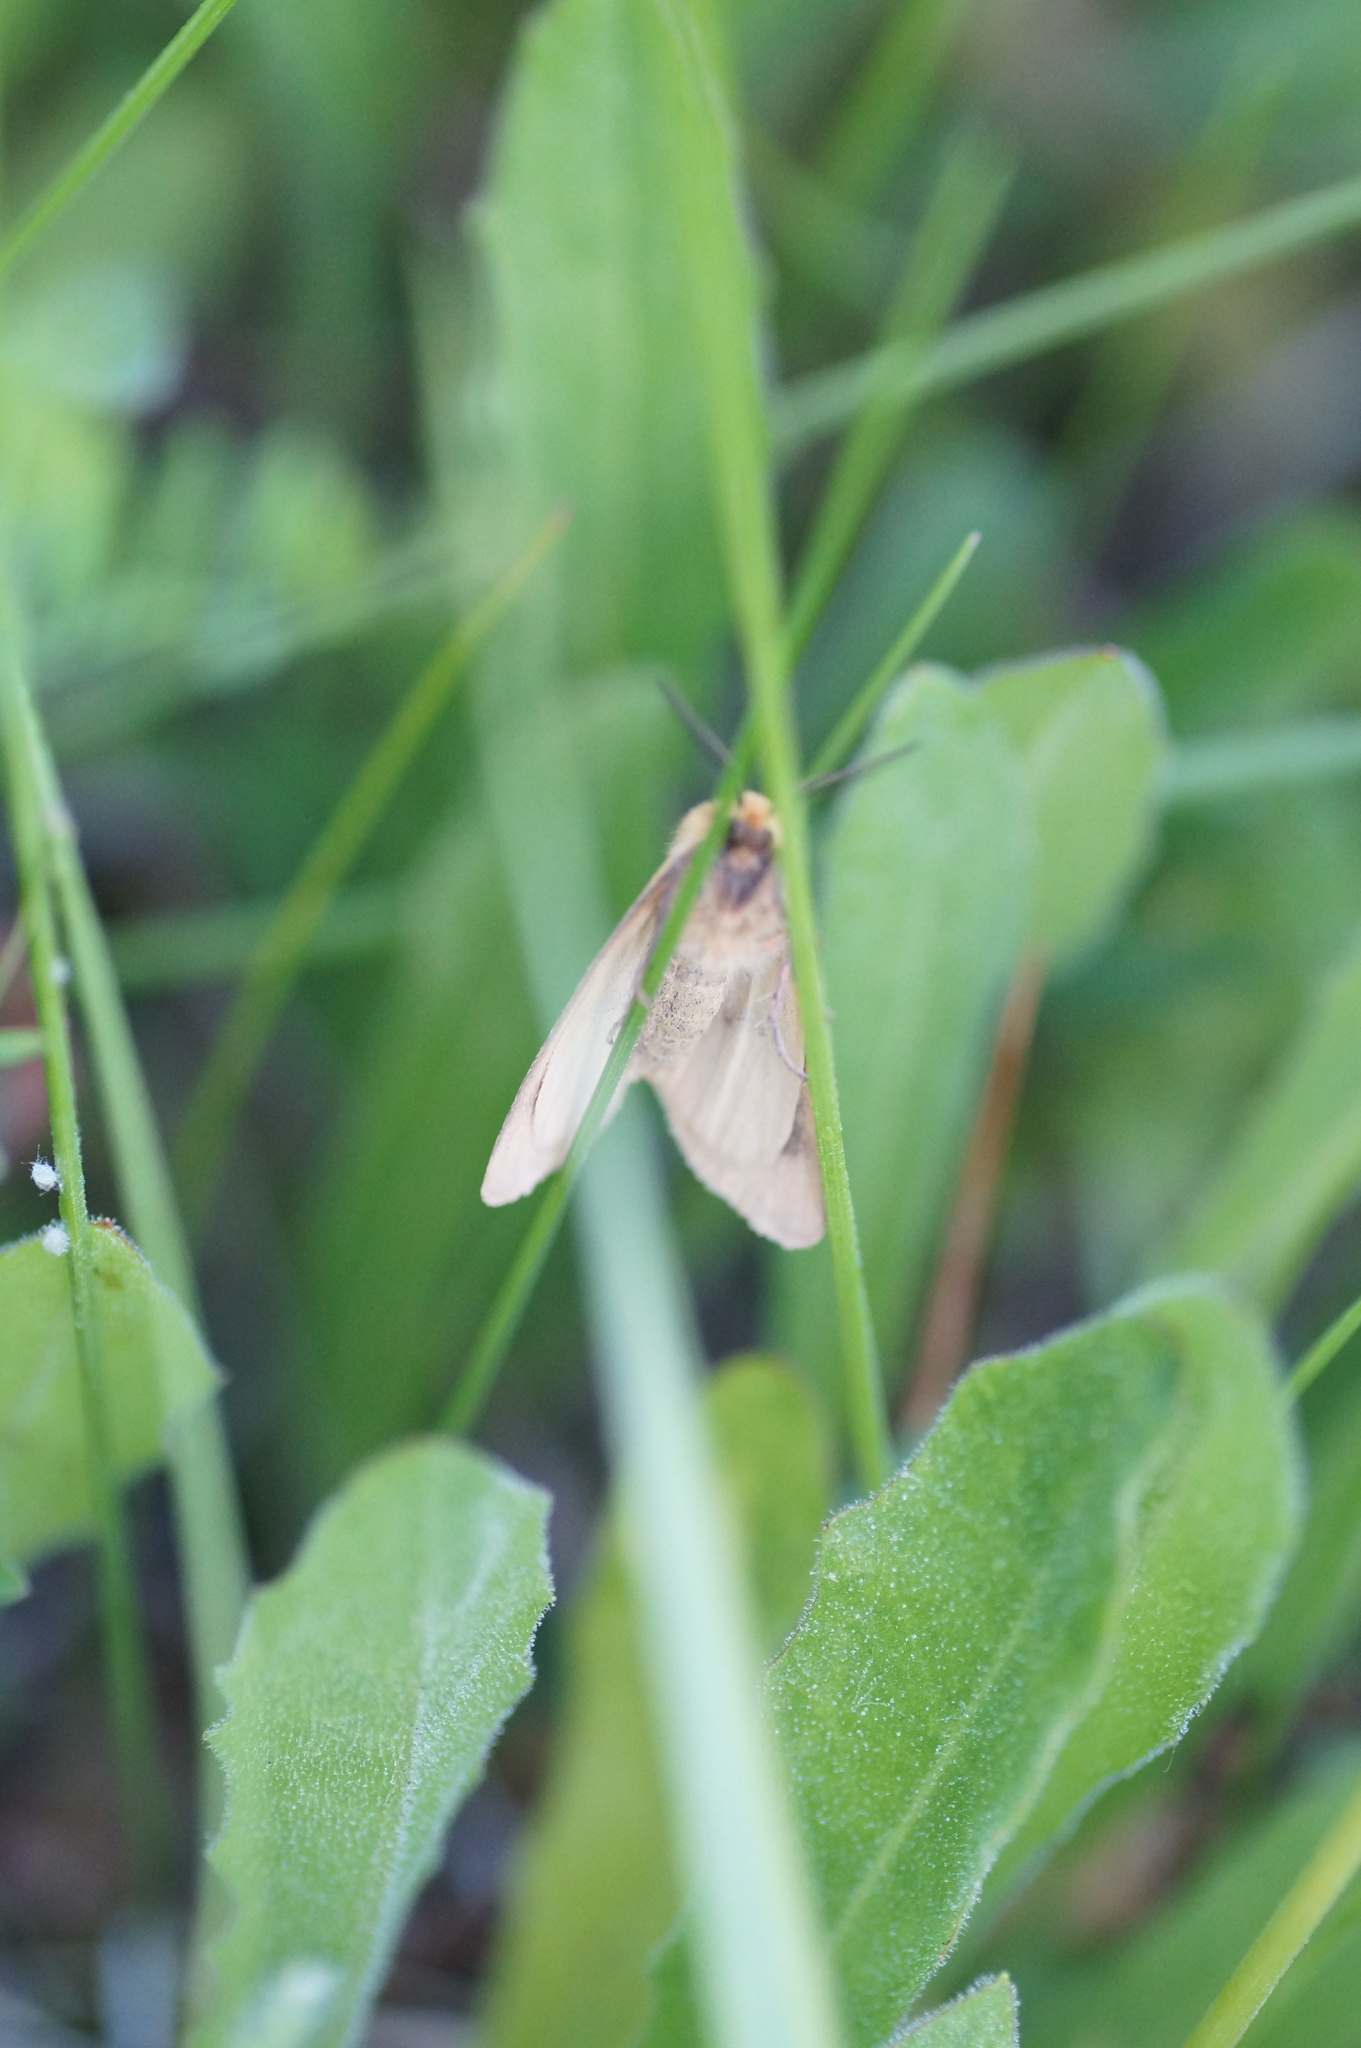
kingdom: Animalia
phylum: Arthropoda
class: Insecta
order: Lepidoptera
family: Erebidae
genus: Diacrisia
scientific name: Diacrisia sannio
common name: Clouded buff
